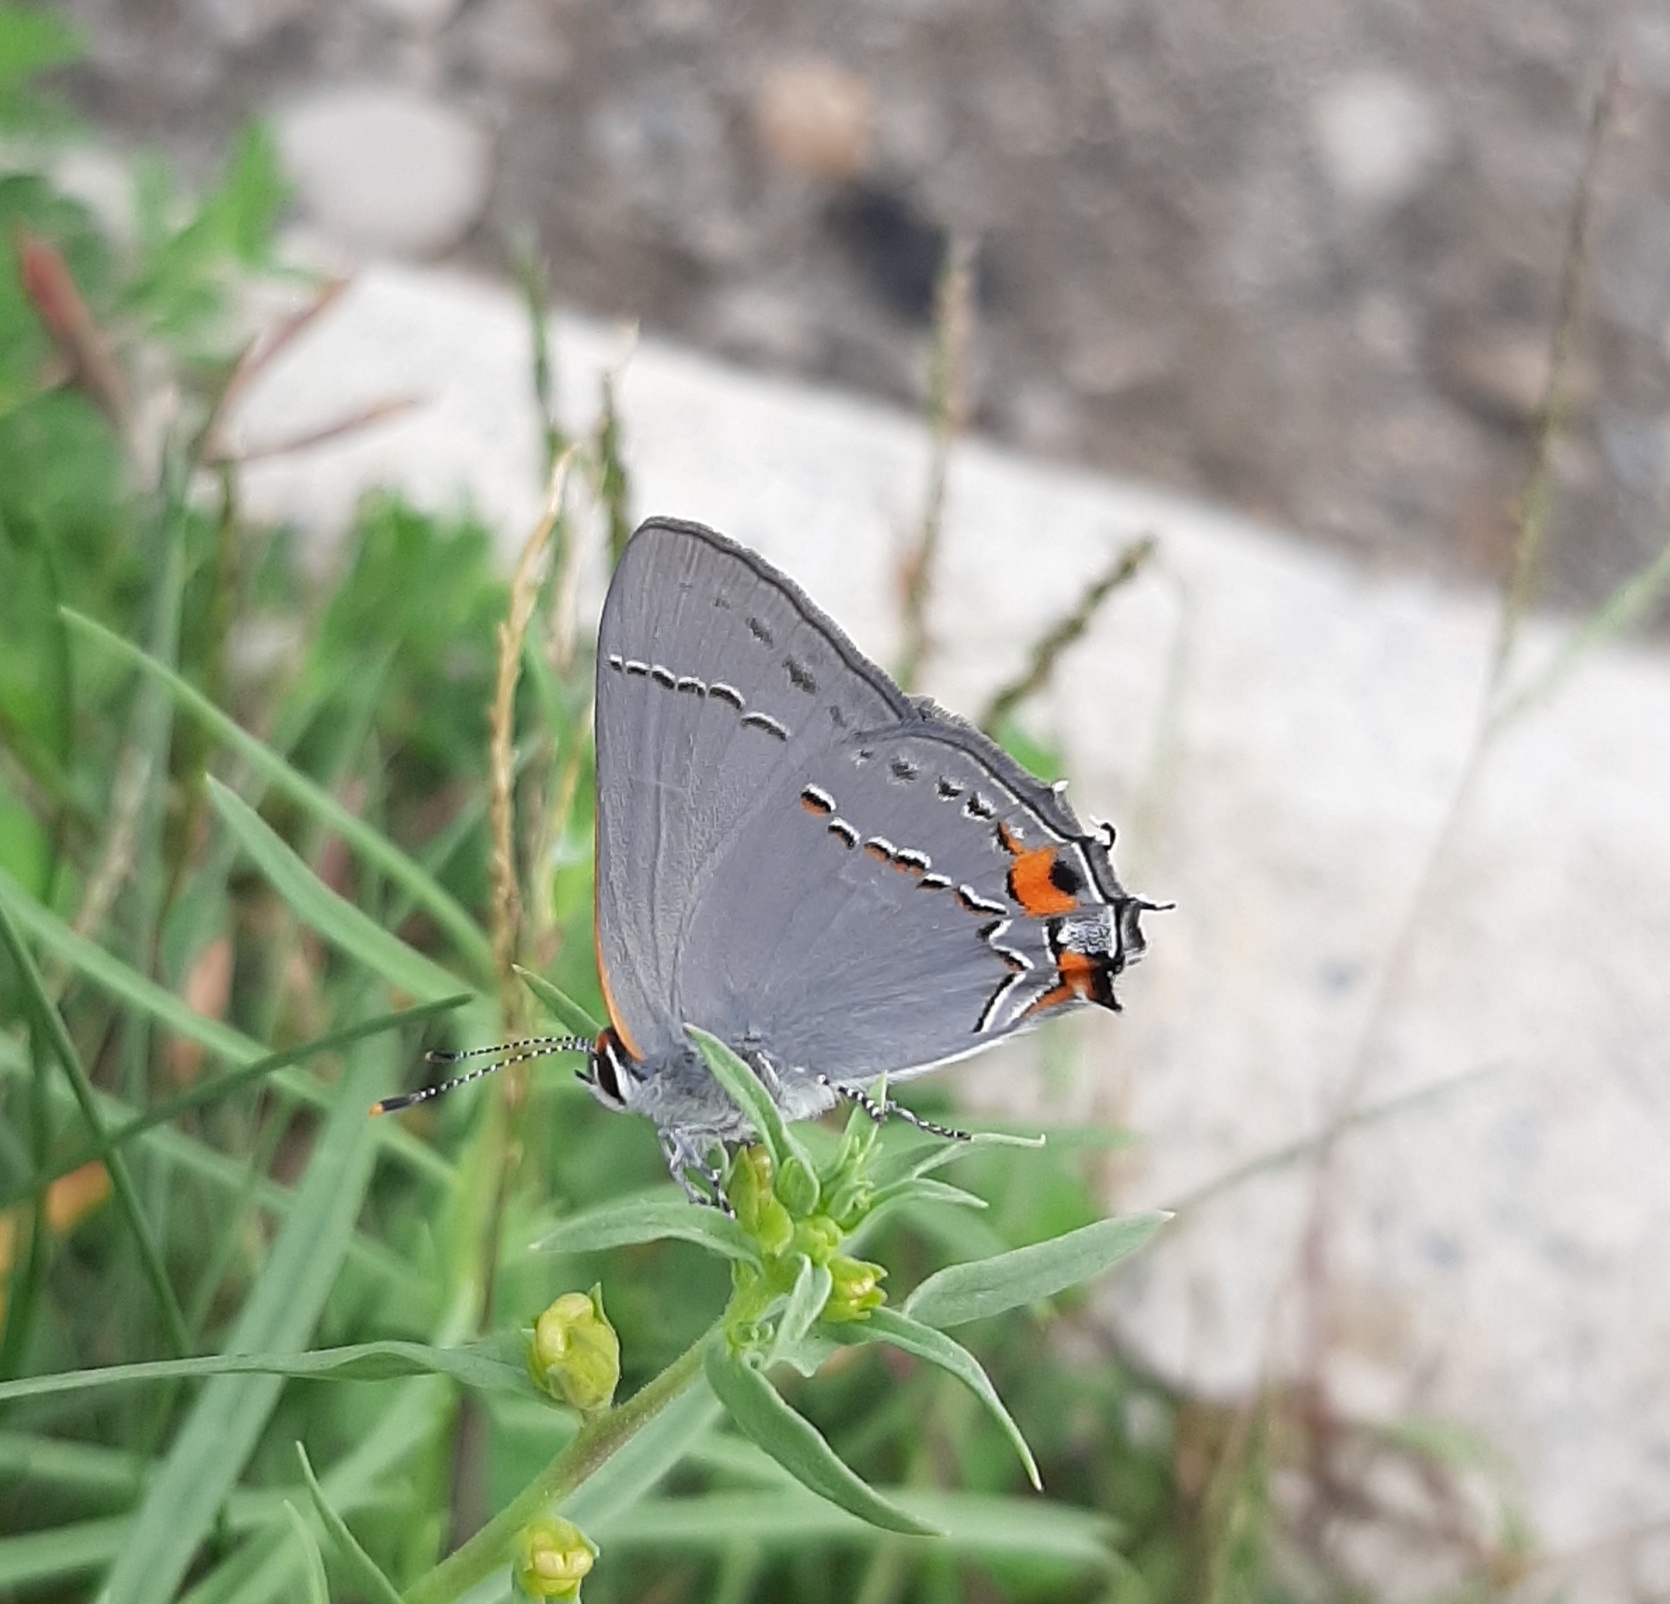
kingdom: Animalia
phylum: Arthropoda
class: Insecta
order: Lepidoptera
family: Lycaenidae
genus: Strymon
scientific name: Strymon melinus
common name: Gray hairstreak
